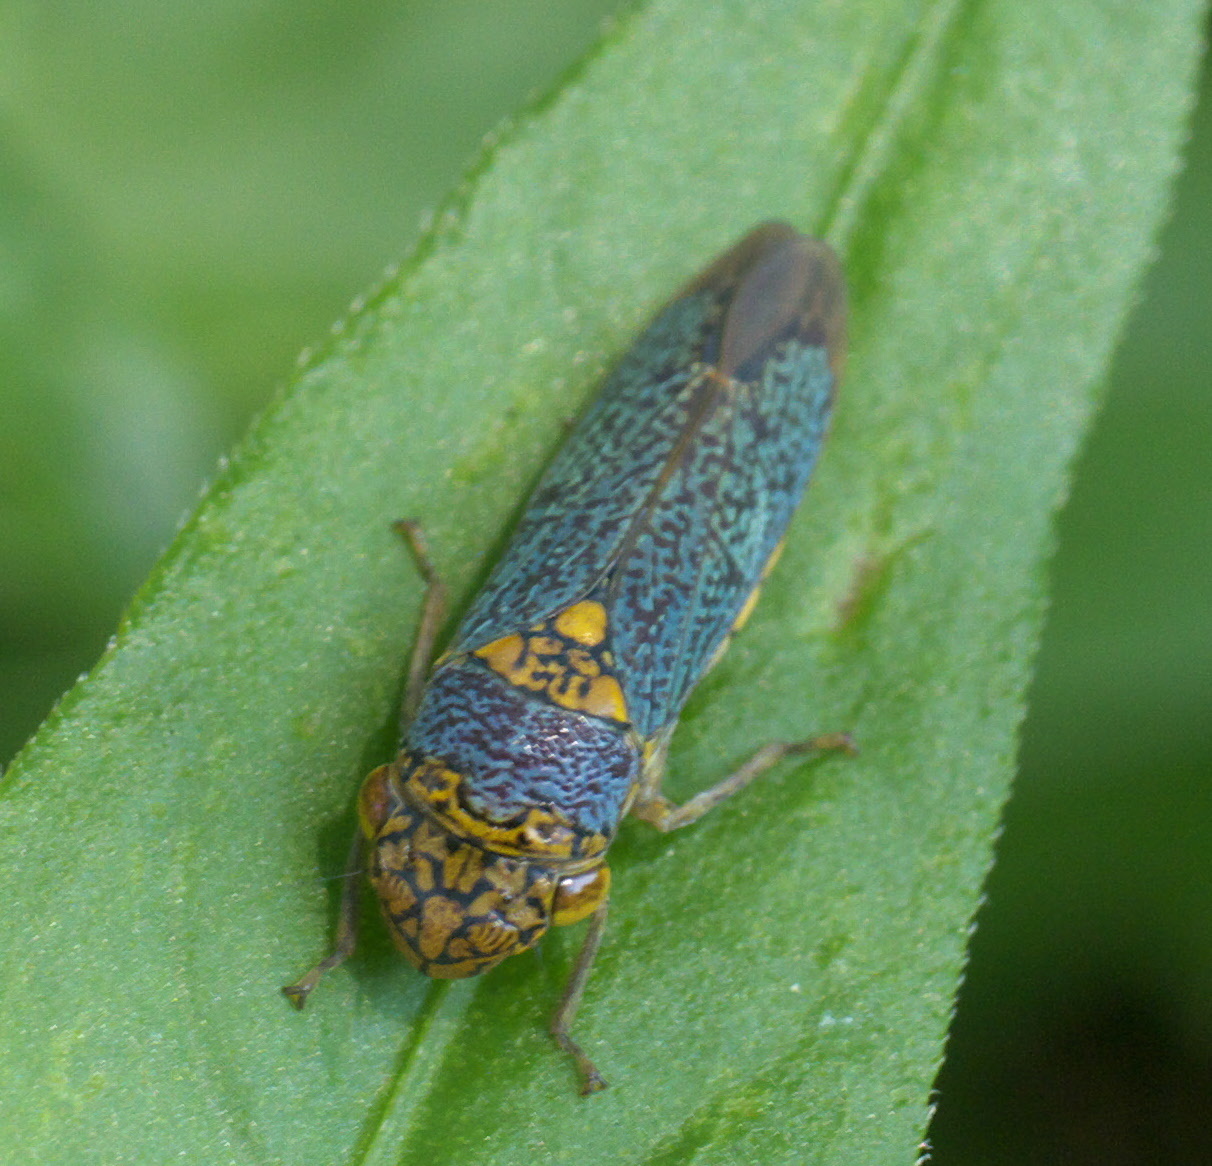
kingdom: Animalia
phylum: Arthropoda
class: Insecta
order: Hemiptera
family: Cicadellidae
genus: Oncometopia
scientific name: Oncometopia orbona
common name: Broad-headed sharpshooter
